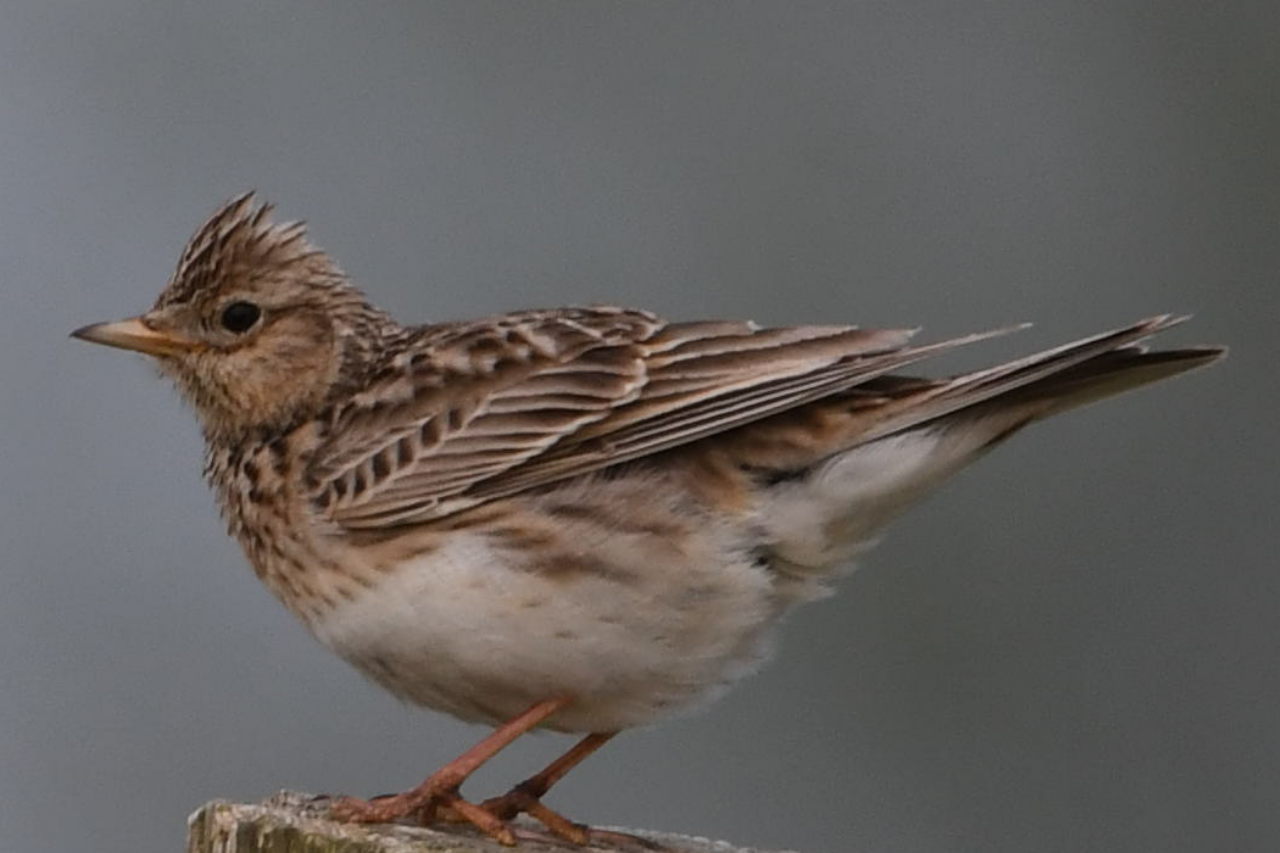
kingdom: Animalia
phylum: Chordata
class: Aves
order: Passeriformes
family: Alaudidae
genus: Alauda
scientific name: Alauda arvensis
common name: Eurasian skylark
